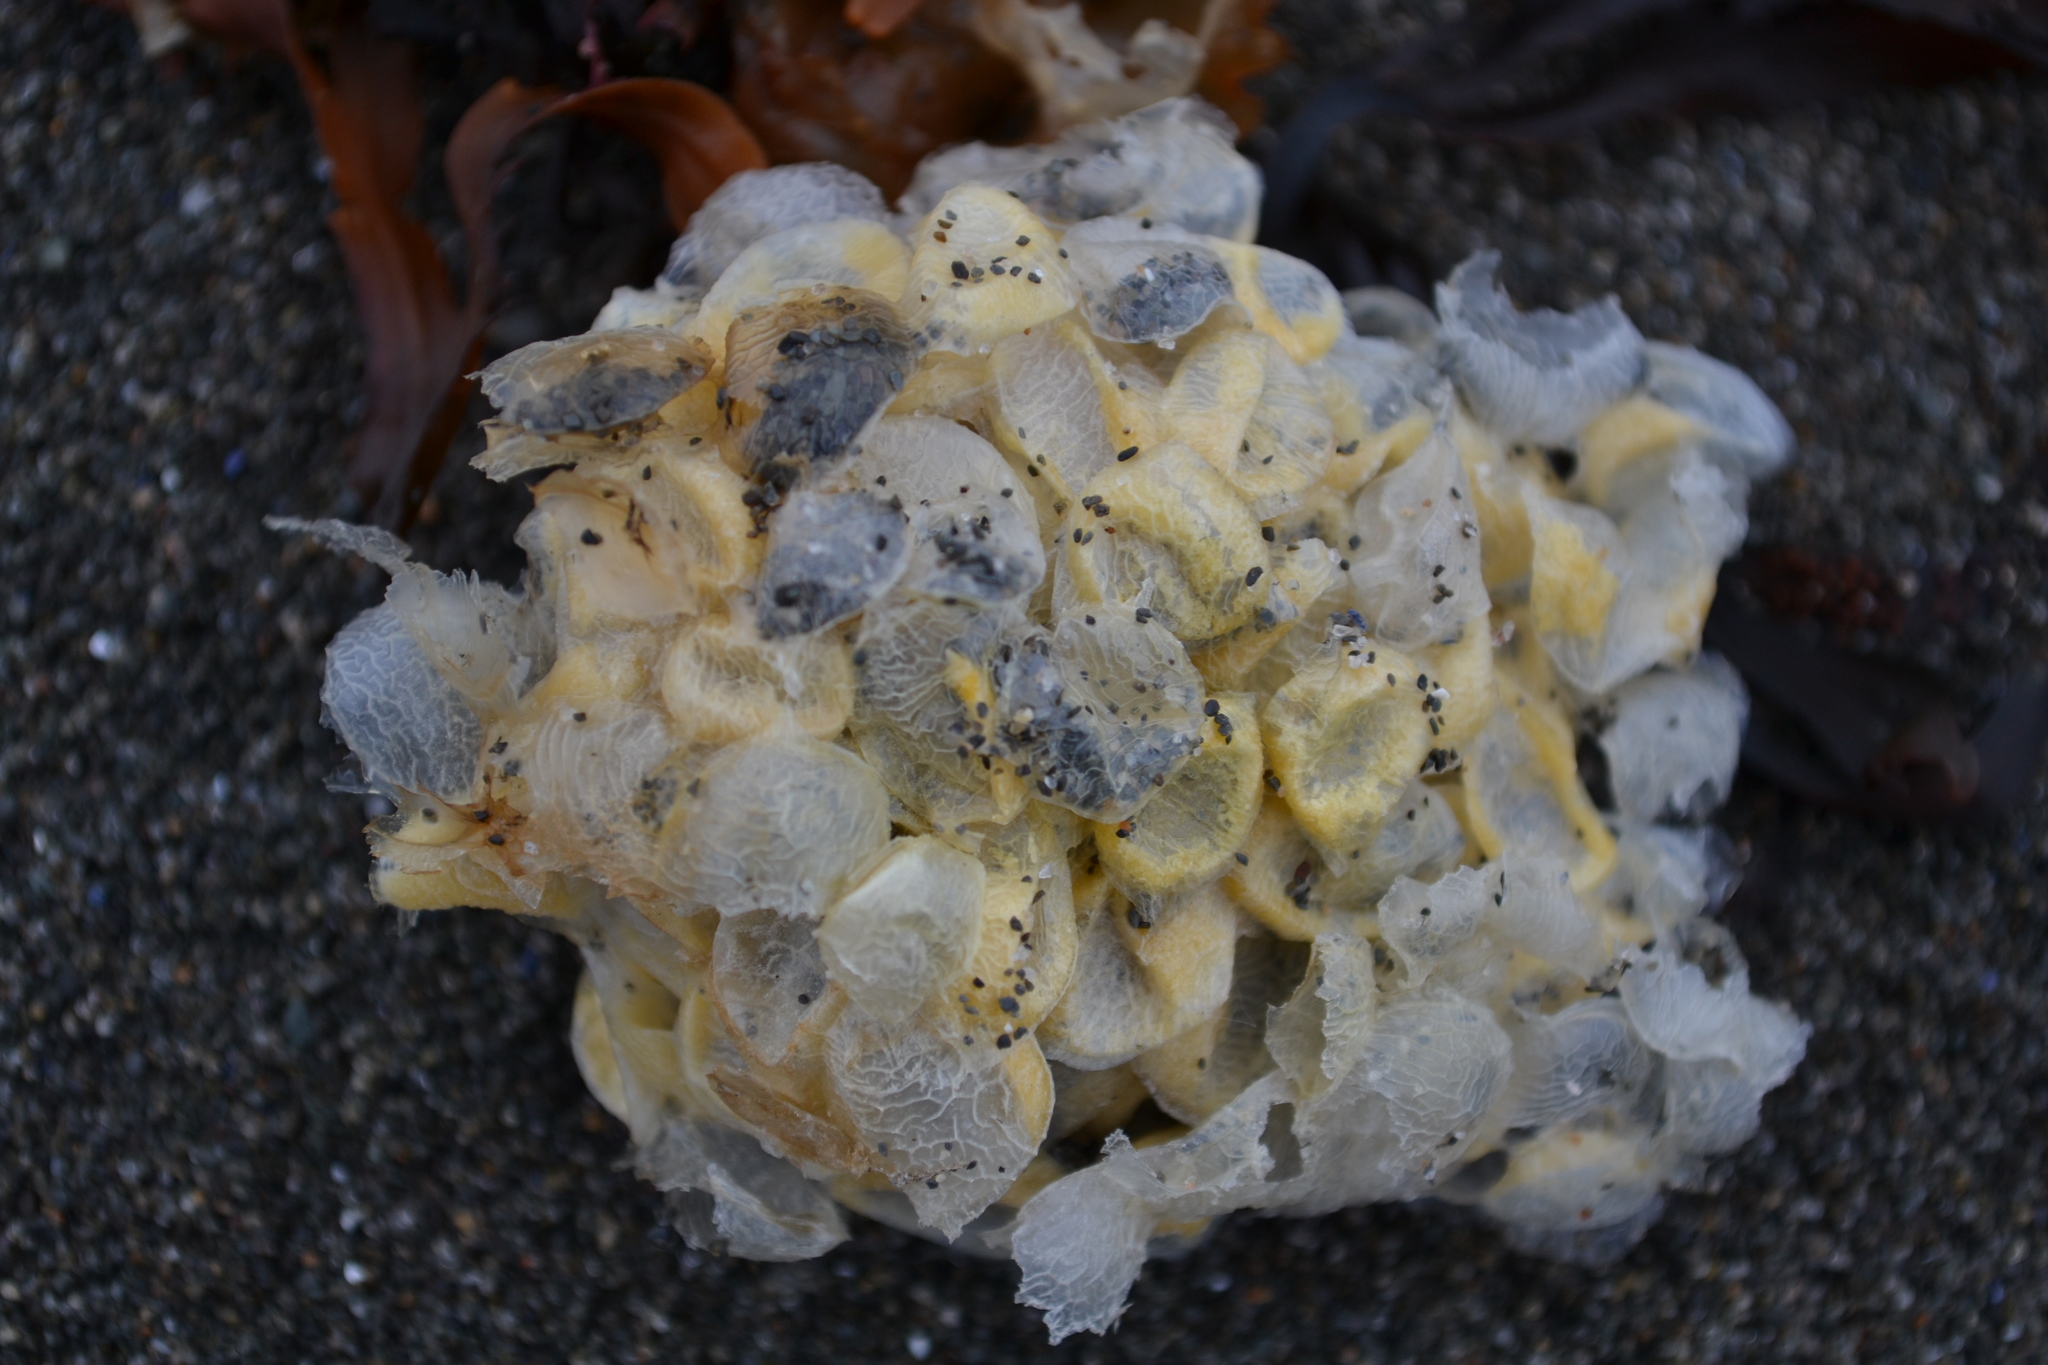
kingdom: Animalia
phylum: Mollusca
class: Gastropoda
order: Neogastropoda
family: Buccinidae
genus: Buccinum
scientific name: Buccinum undatum
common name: Common whelk
